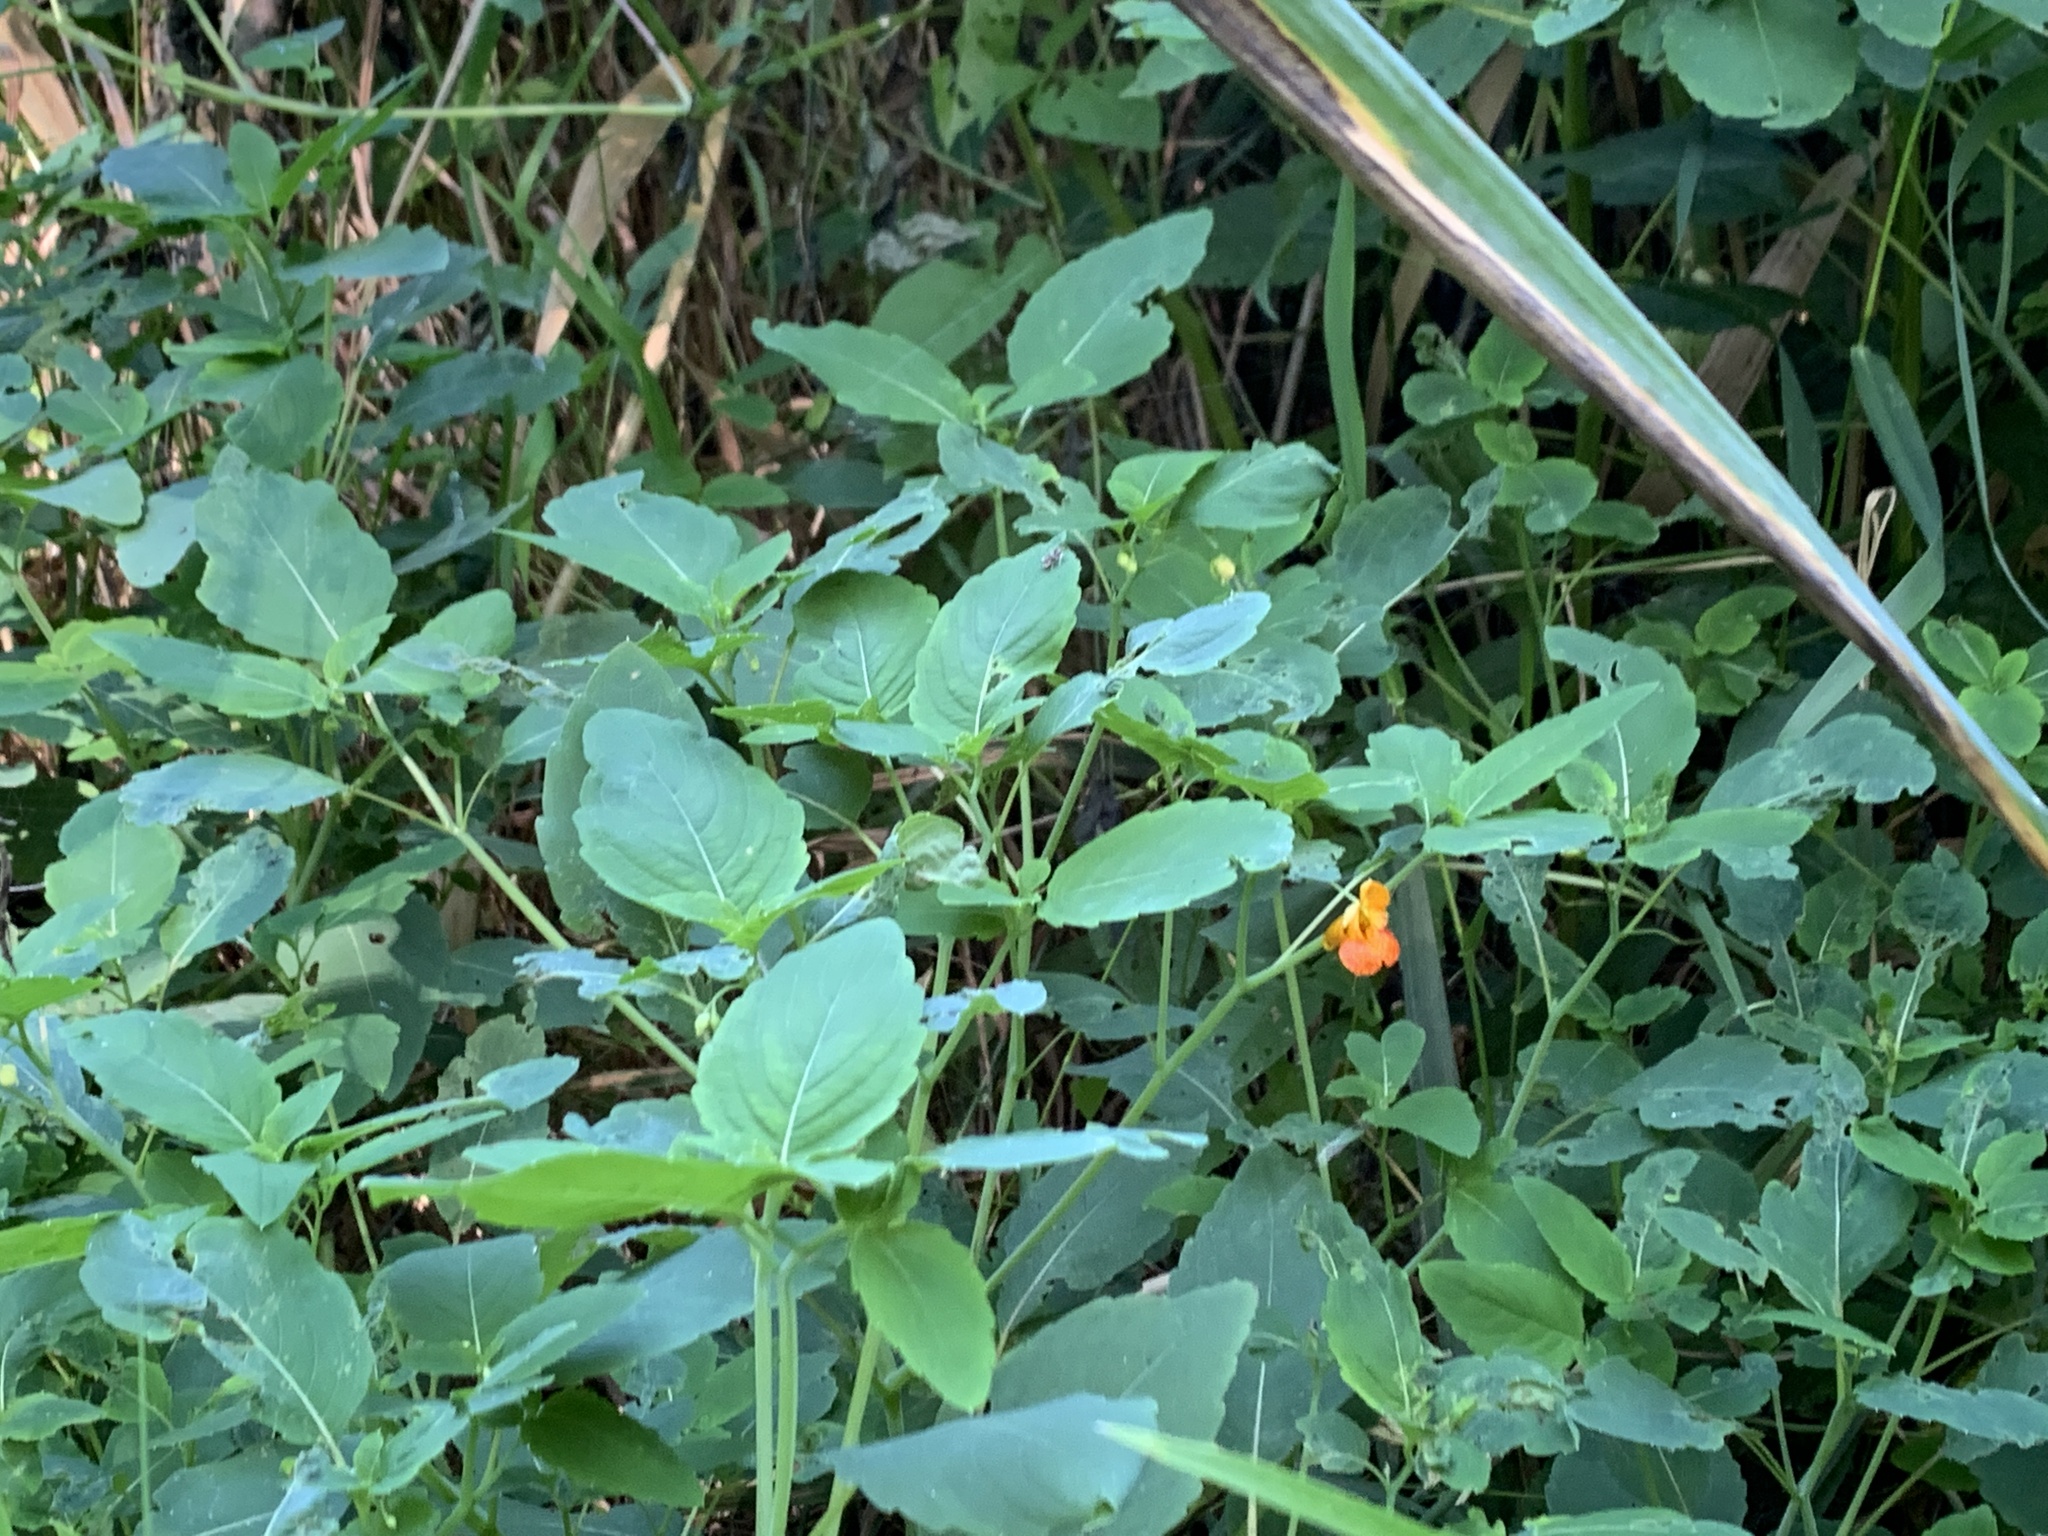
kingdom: Plantae
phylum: Tracheophyta
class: Magnoliopsida
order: Ericales
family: Balsaminaceae
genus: Impatiens
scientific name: Impatiens capensis
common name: Orange balsam
